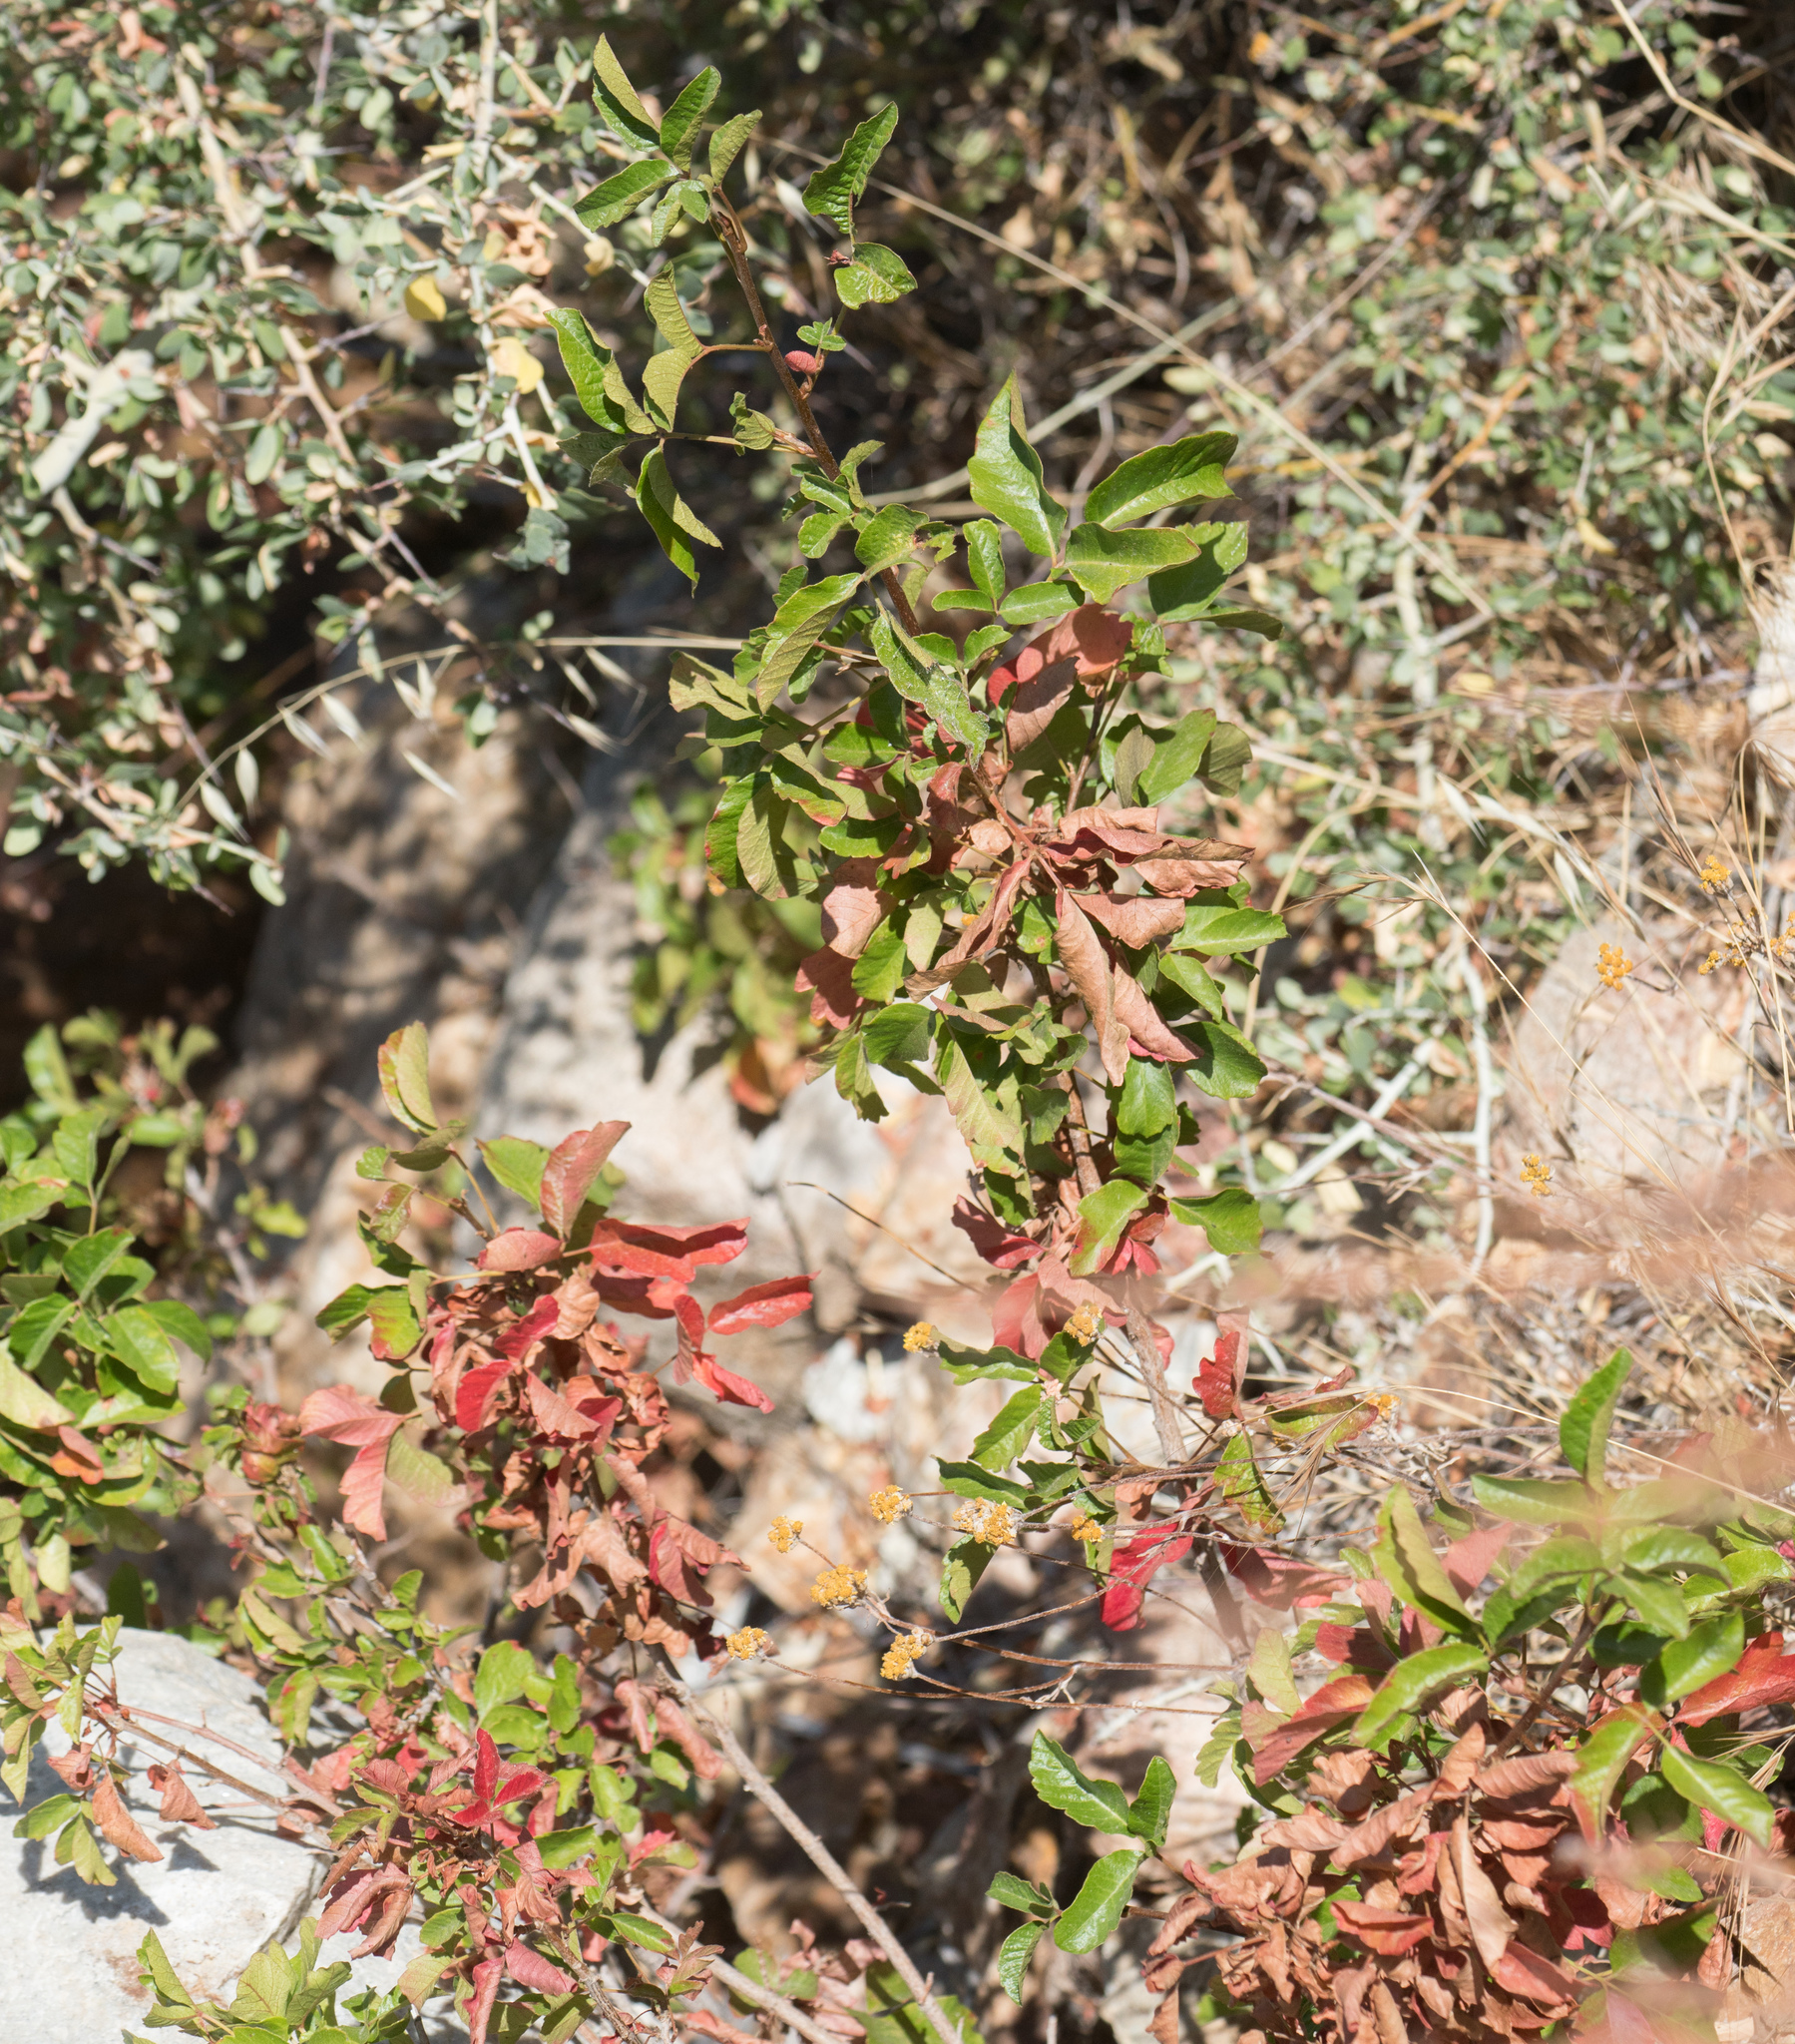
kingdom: Plantae
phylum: Tracheophyta
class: Magnoliopsida
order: Sapindales
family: Anacardiaceae
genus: Toxicodendron
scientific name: Toxicodendron diversilobum
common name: Pacific poison-oak
